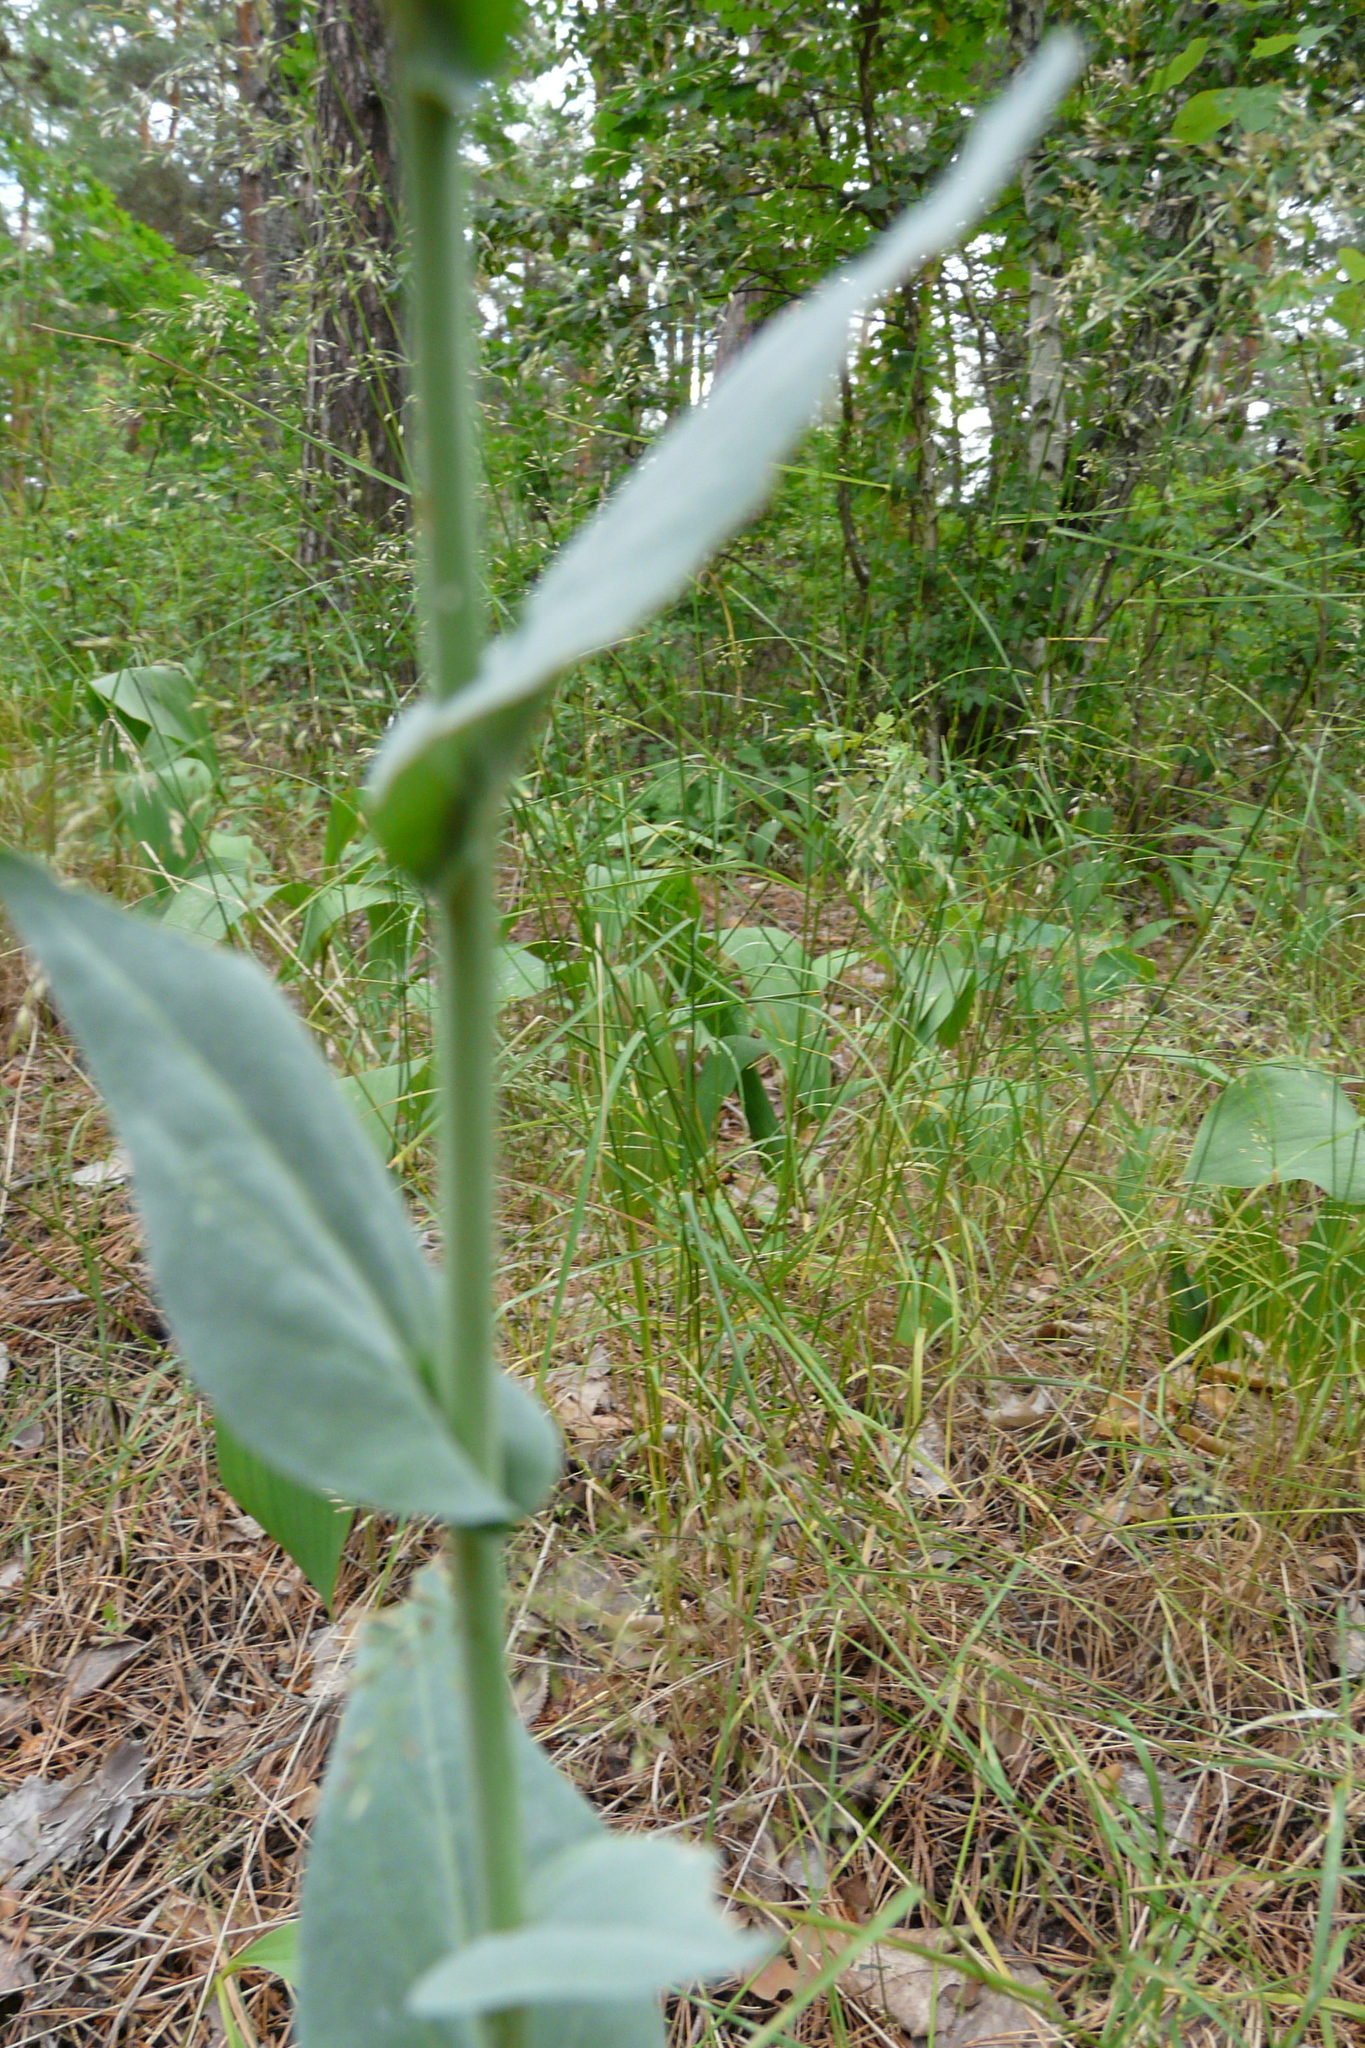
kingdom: Plantae
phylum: Tracheophyta
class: Magnoliopsida
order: Brassicales
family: Brassicaceae
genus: Turritis
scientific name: Turritis glabra
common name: Tower rockcress
